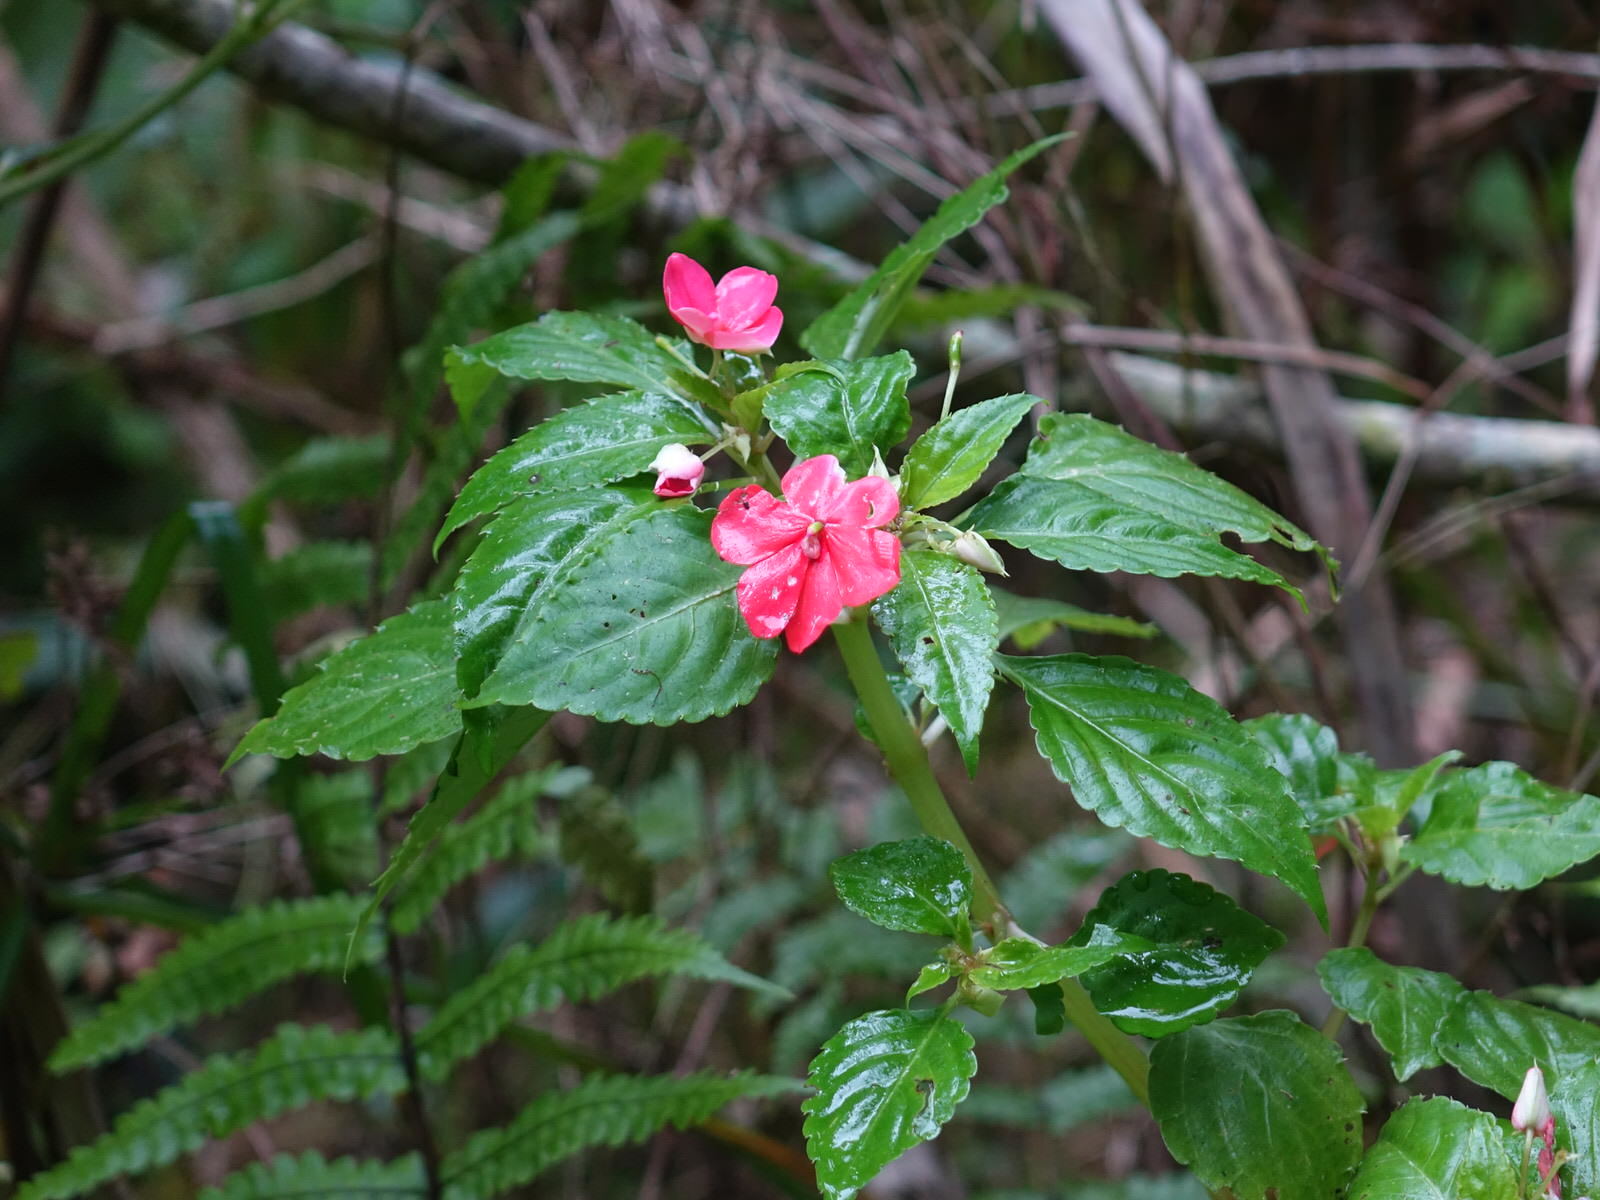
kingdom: Plantae
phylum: Tracheophyta
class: Magnoliopsida
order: Ericales
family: Balsaminaceae
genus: Impatiens
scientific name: Impatiens walleriana
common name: Buzzy lizzy
